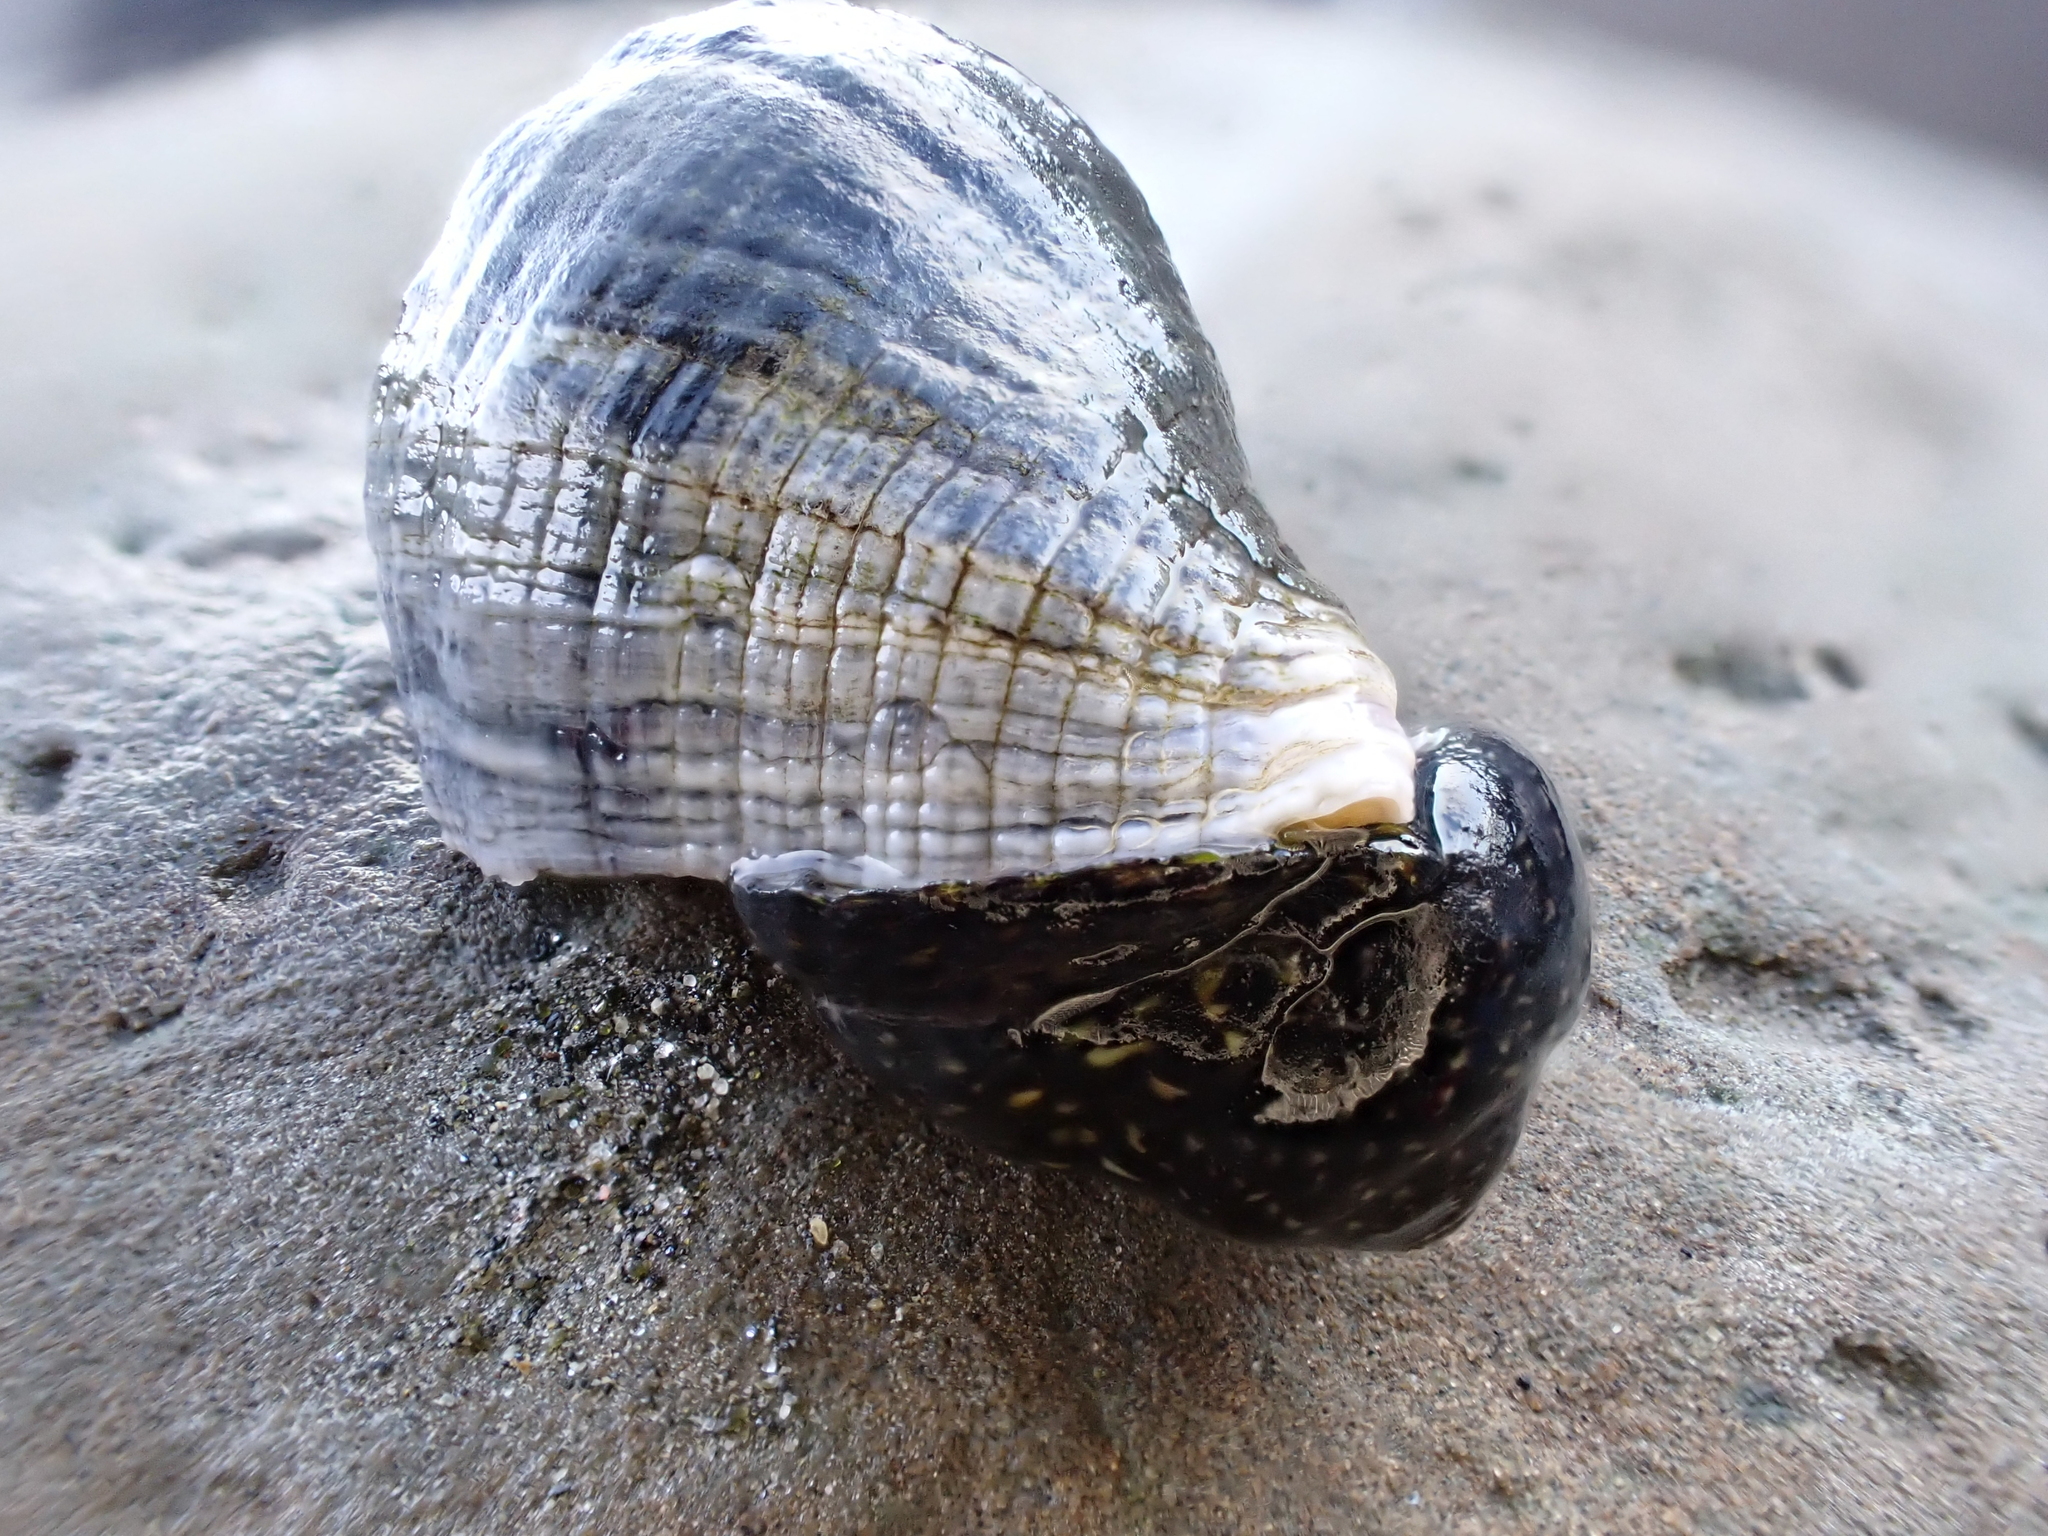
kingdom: Animalia
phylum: Mollusca
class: Gastropoda
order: Neogastropoda
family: Muricidae
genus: Haustrum
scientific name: Haustrum haustorium
